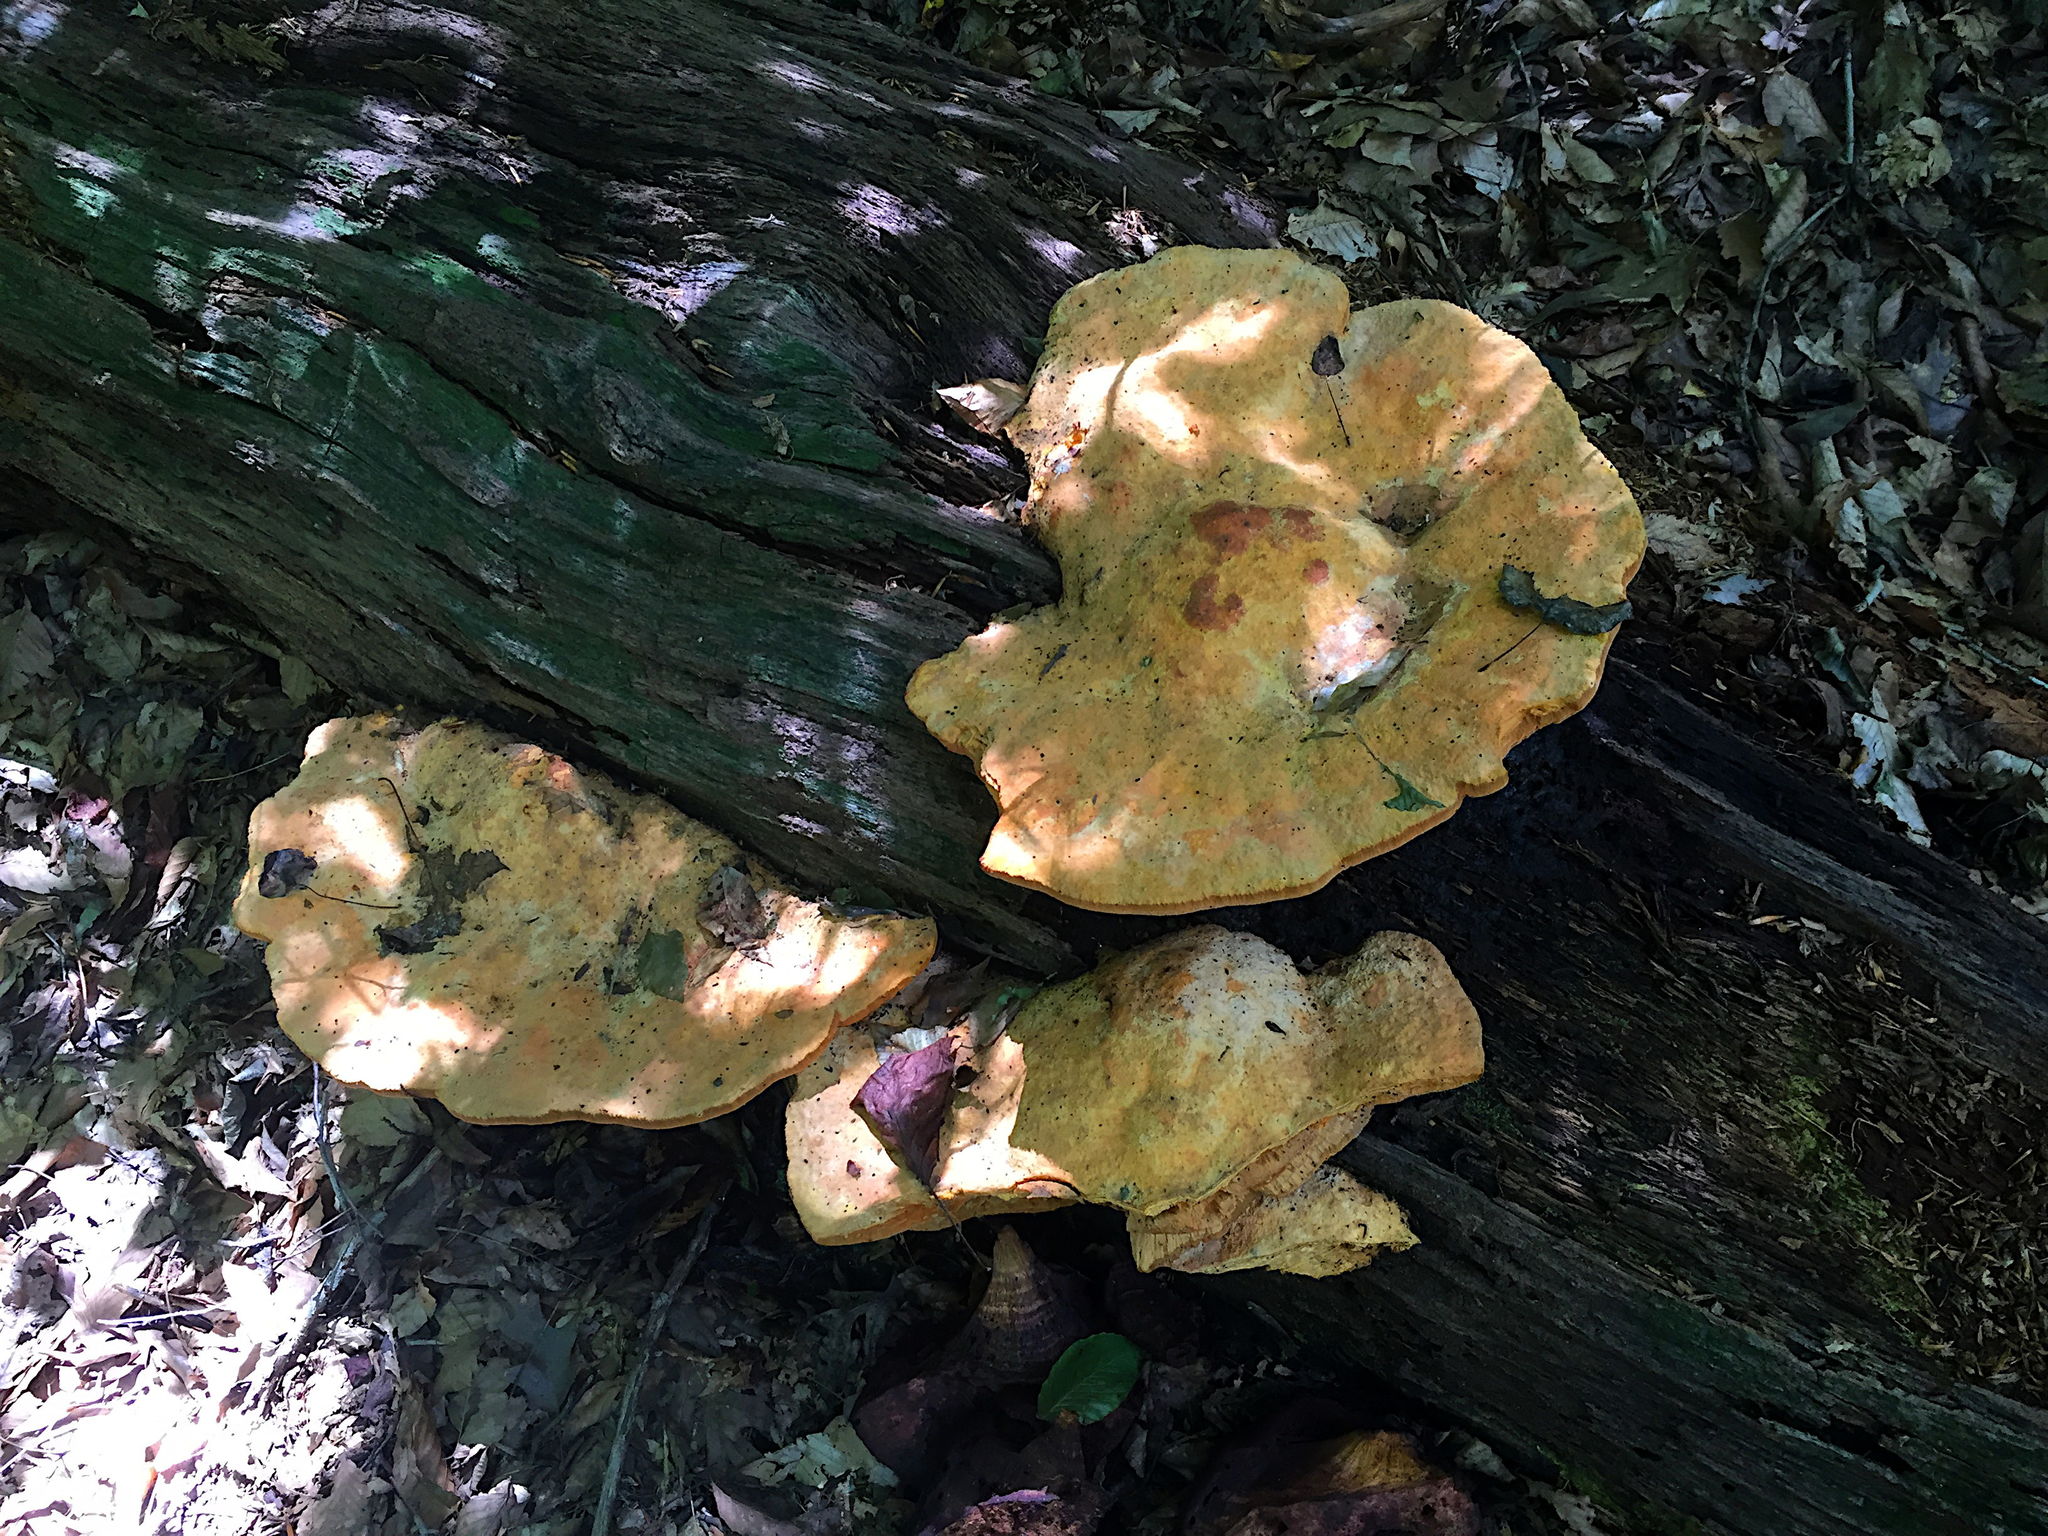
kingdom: Fungi
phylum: Basidiomycota
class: Agaricomycetes
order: Polyporales
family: Phanerochaetaceae
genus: Hapalopilus
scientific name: Hapalopilus croceus
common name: Orange polypore
